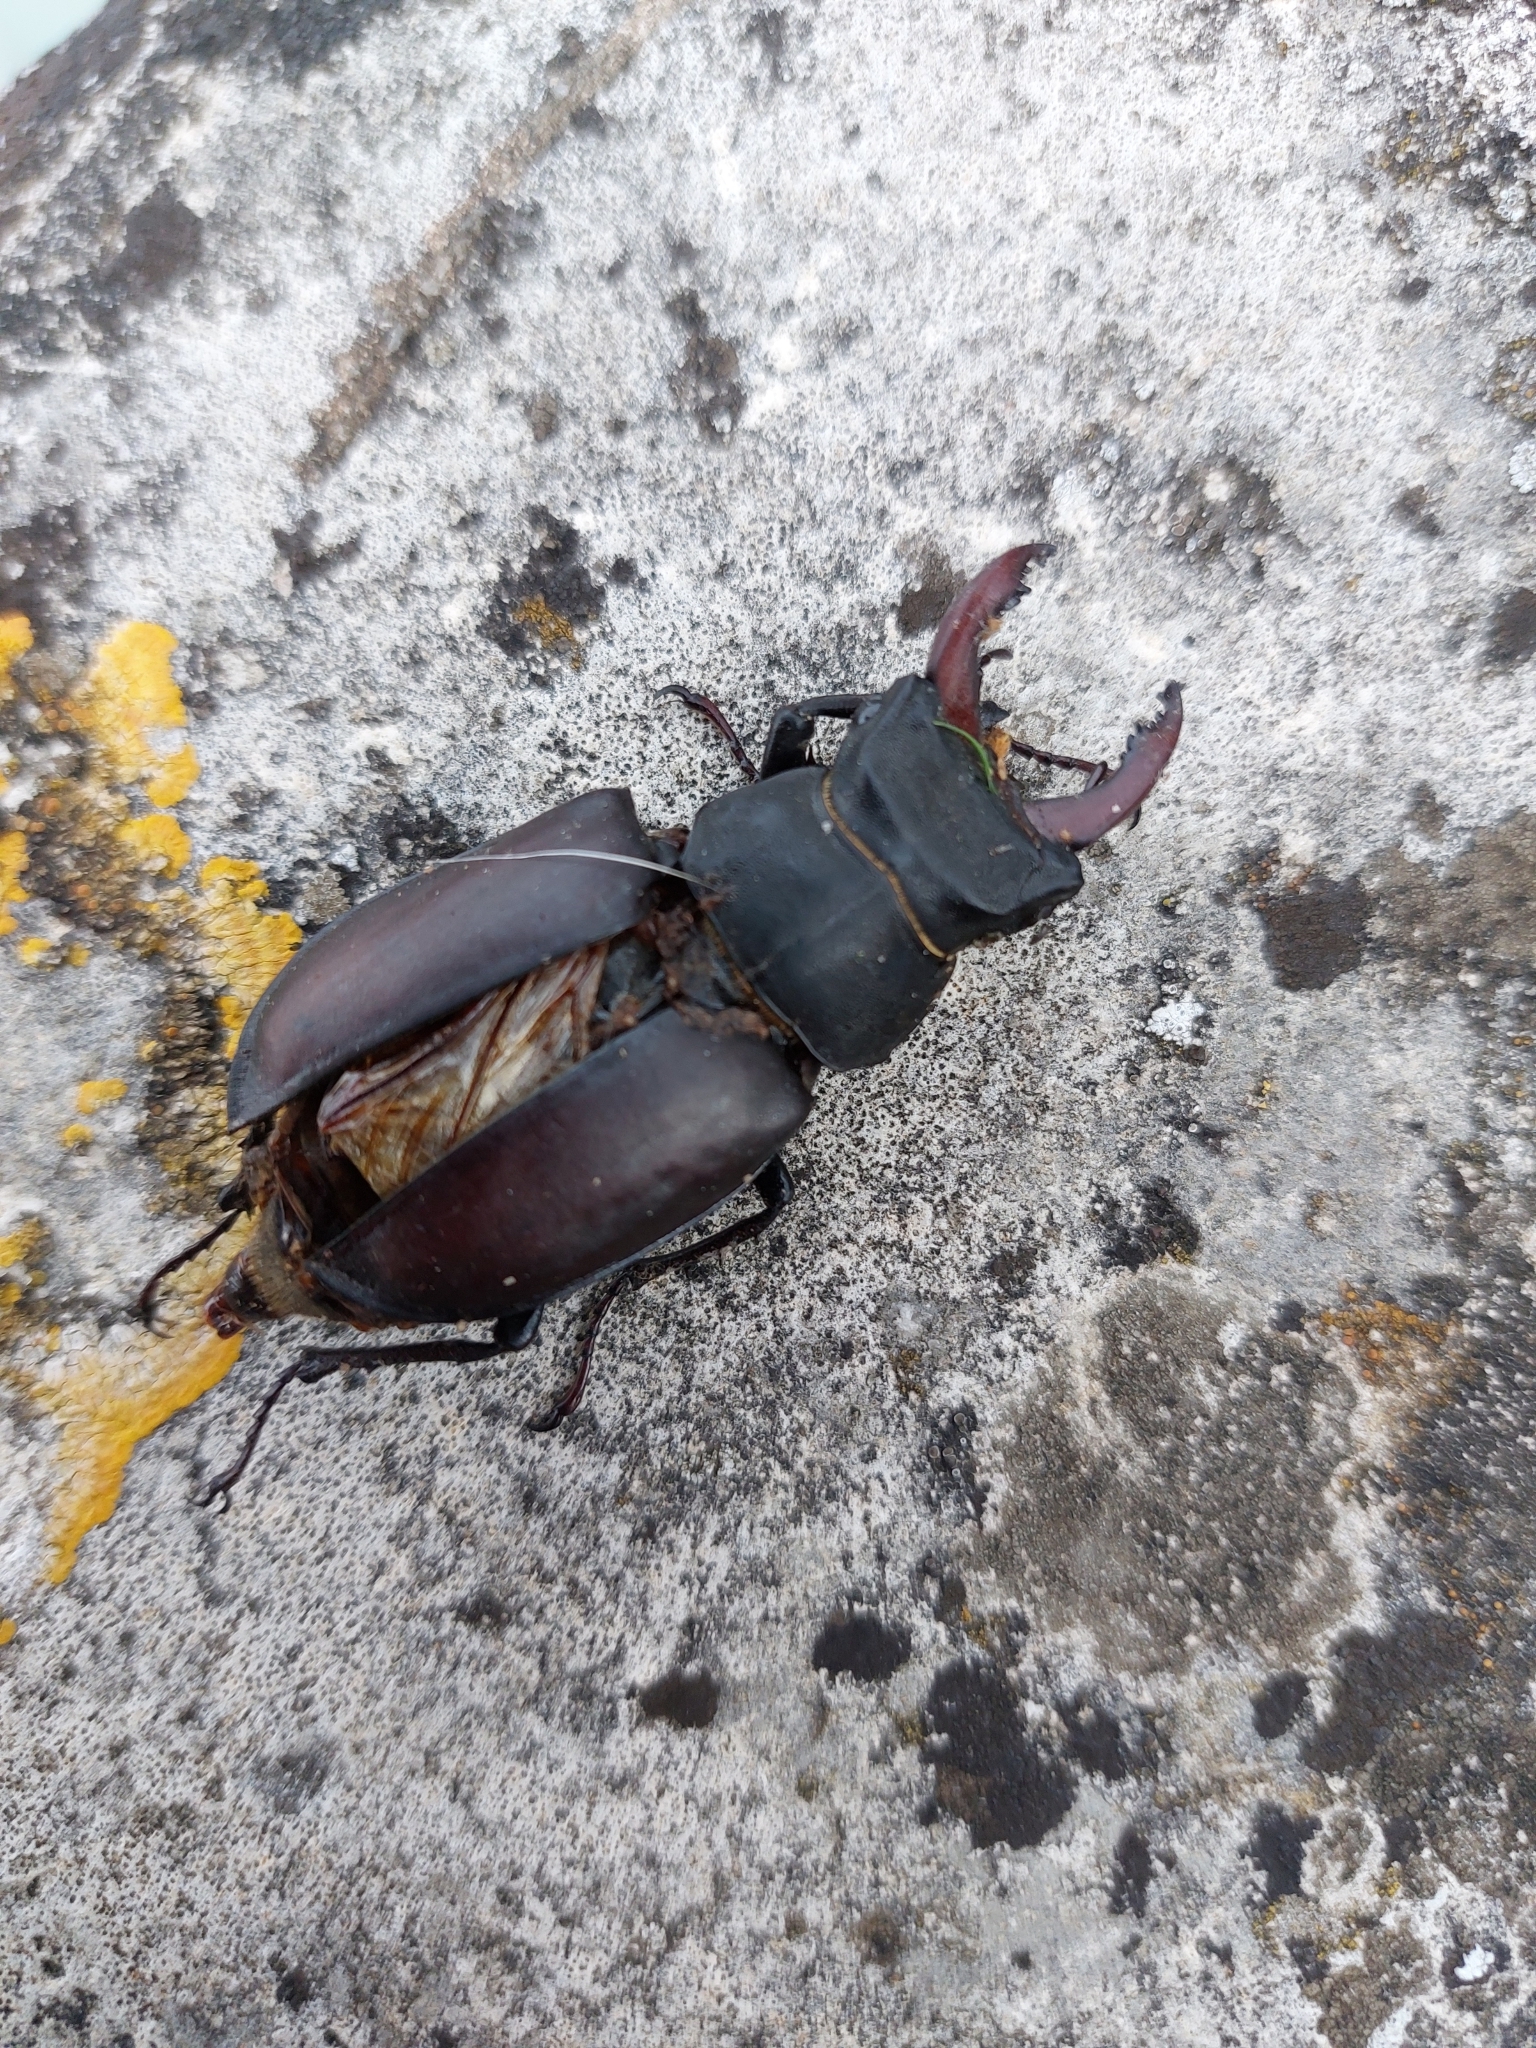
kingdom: Animalia
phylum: Arthropoda
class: Insecta
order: Coleoptera
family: Lucanidae
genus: Lucanus
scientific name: Lucanus cervus
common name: Stag beetle
